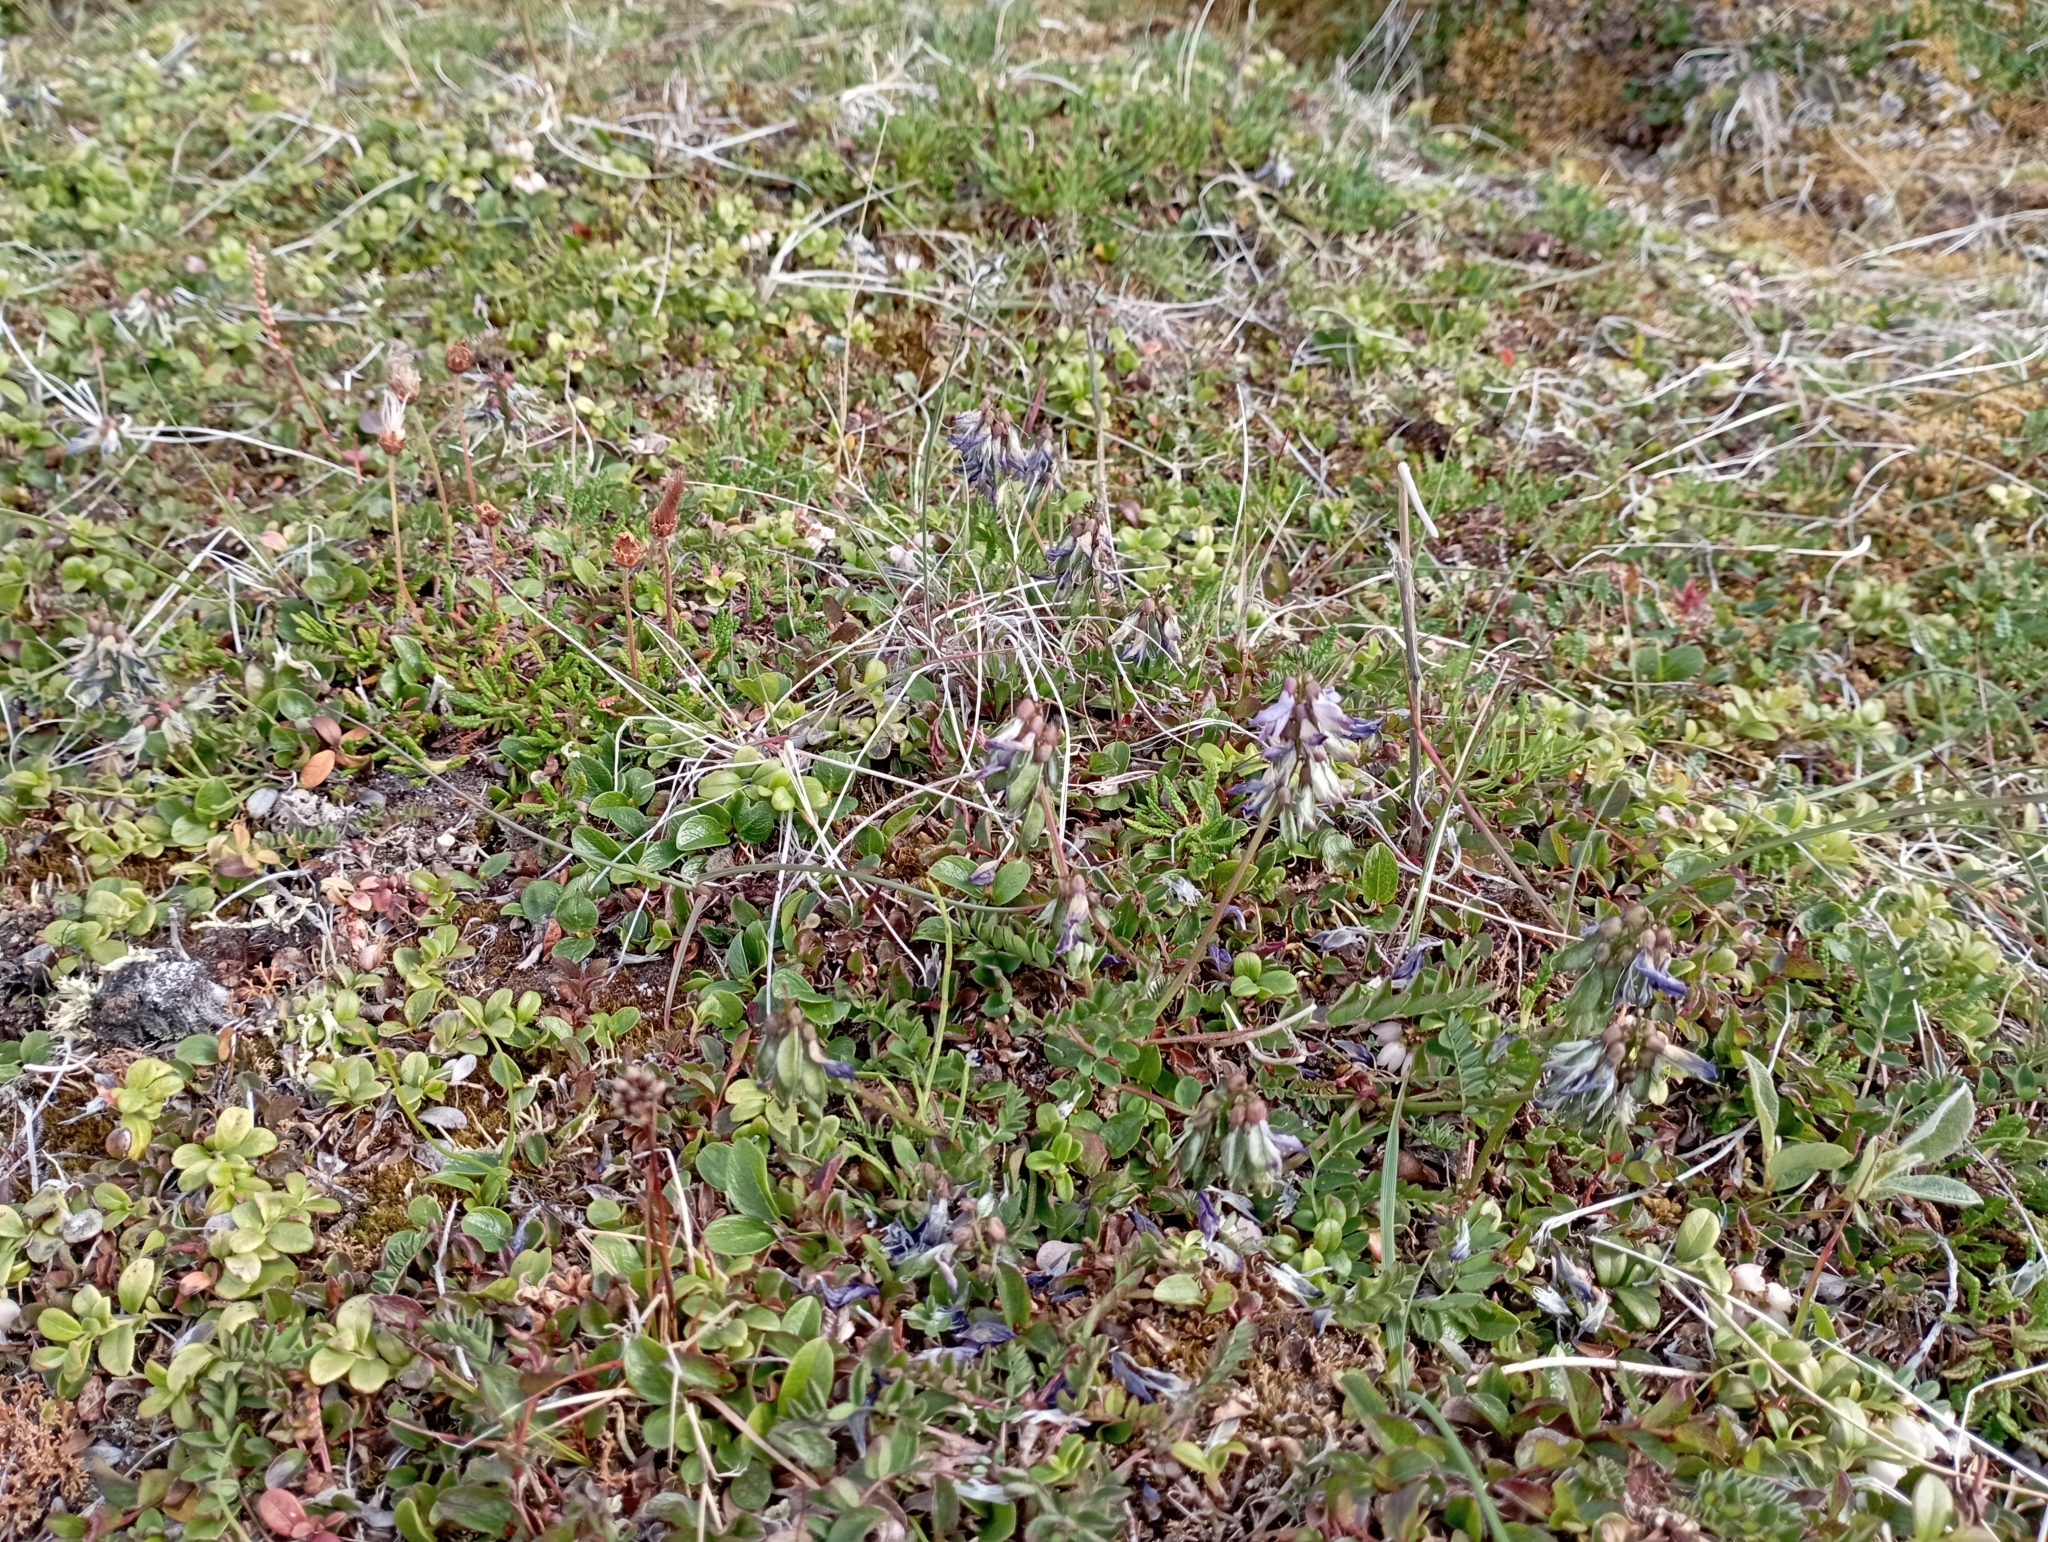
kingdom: Plantae
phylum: Tracheophyta
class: Magnoliopsida
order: Fabales
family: Fabaceae
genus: Astragalus
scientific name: Astragalus alpinus
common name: Alpine milk-vetch
